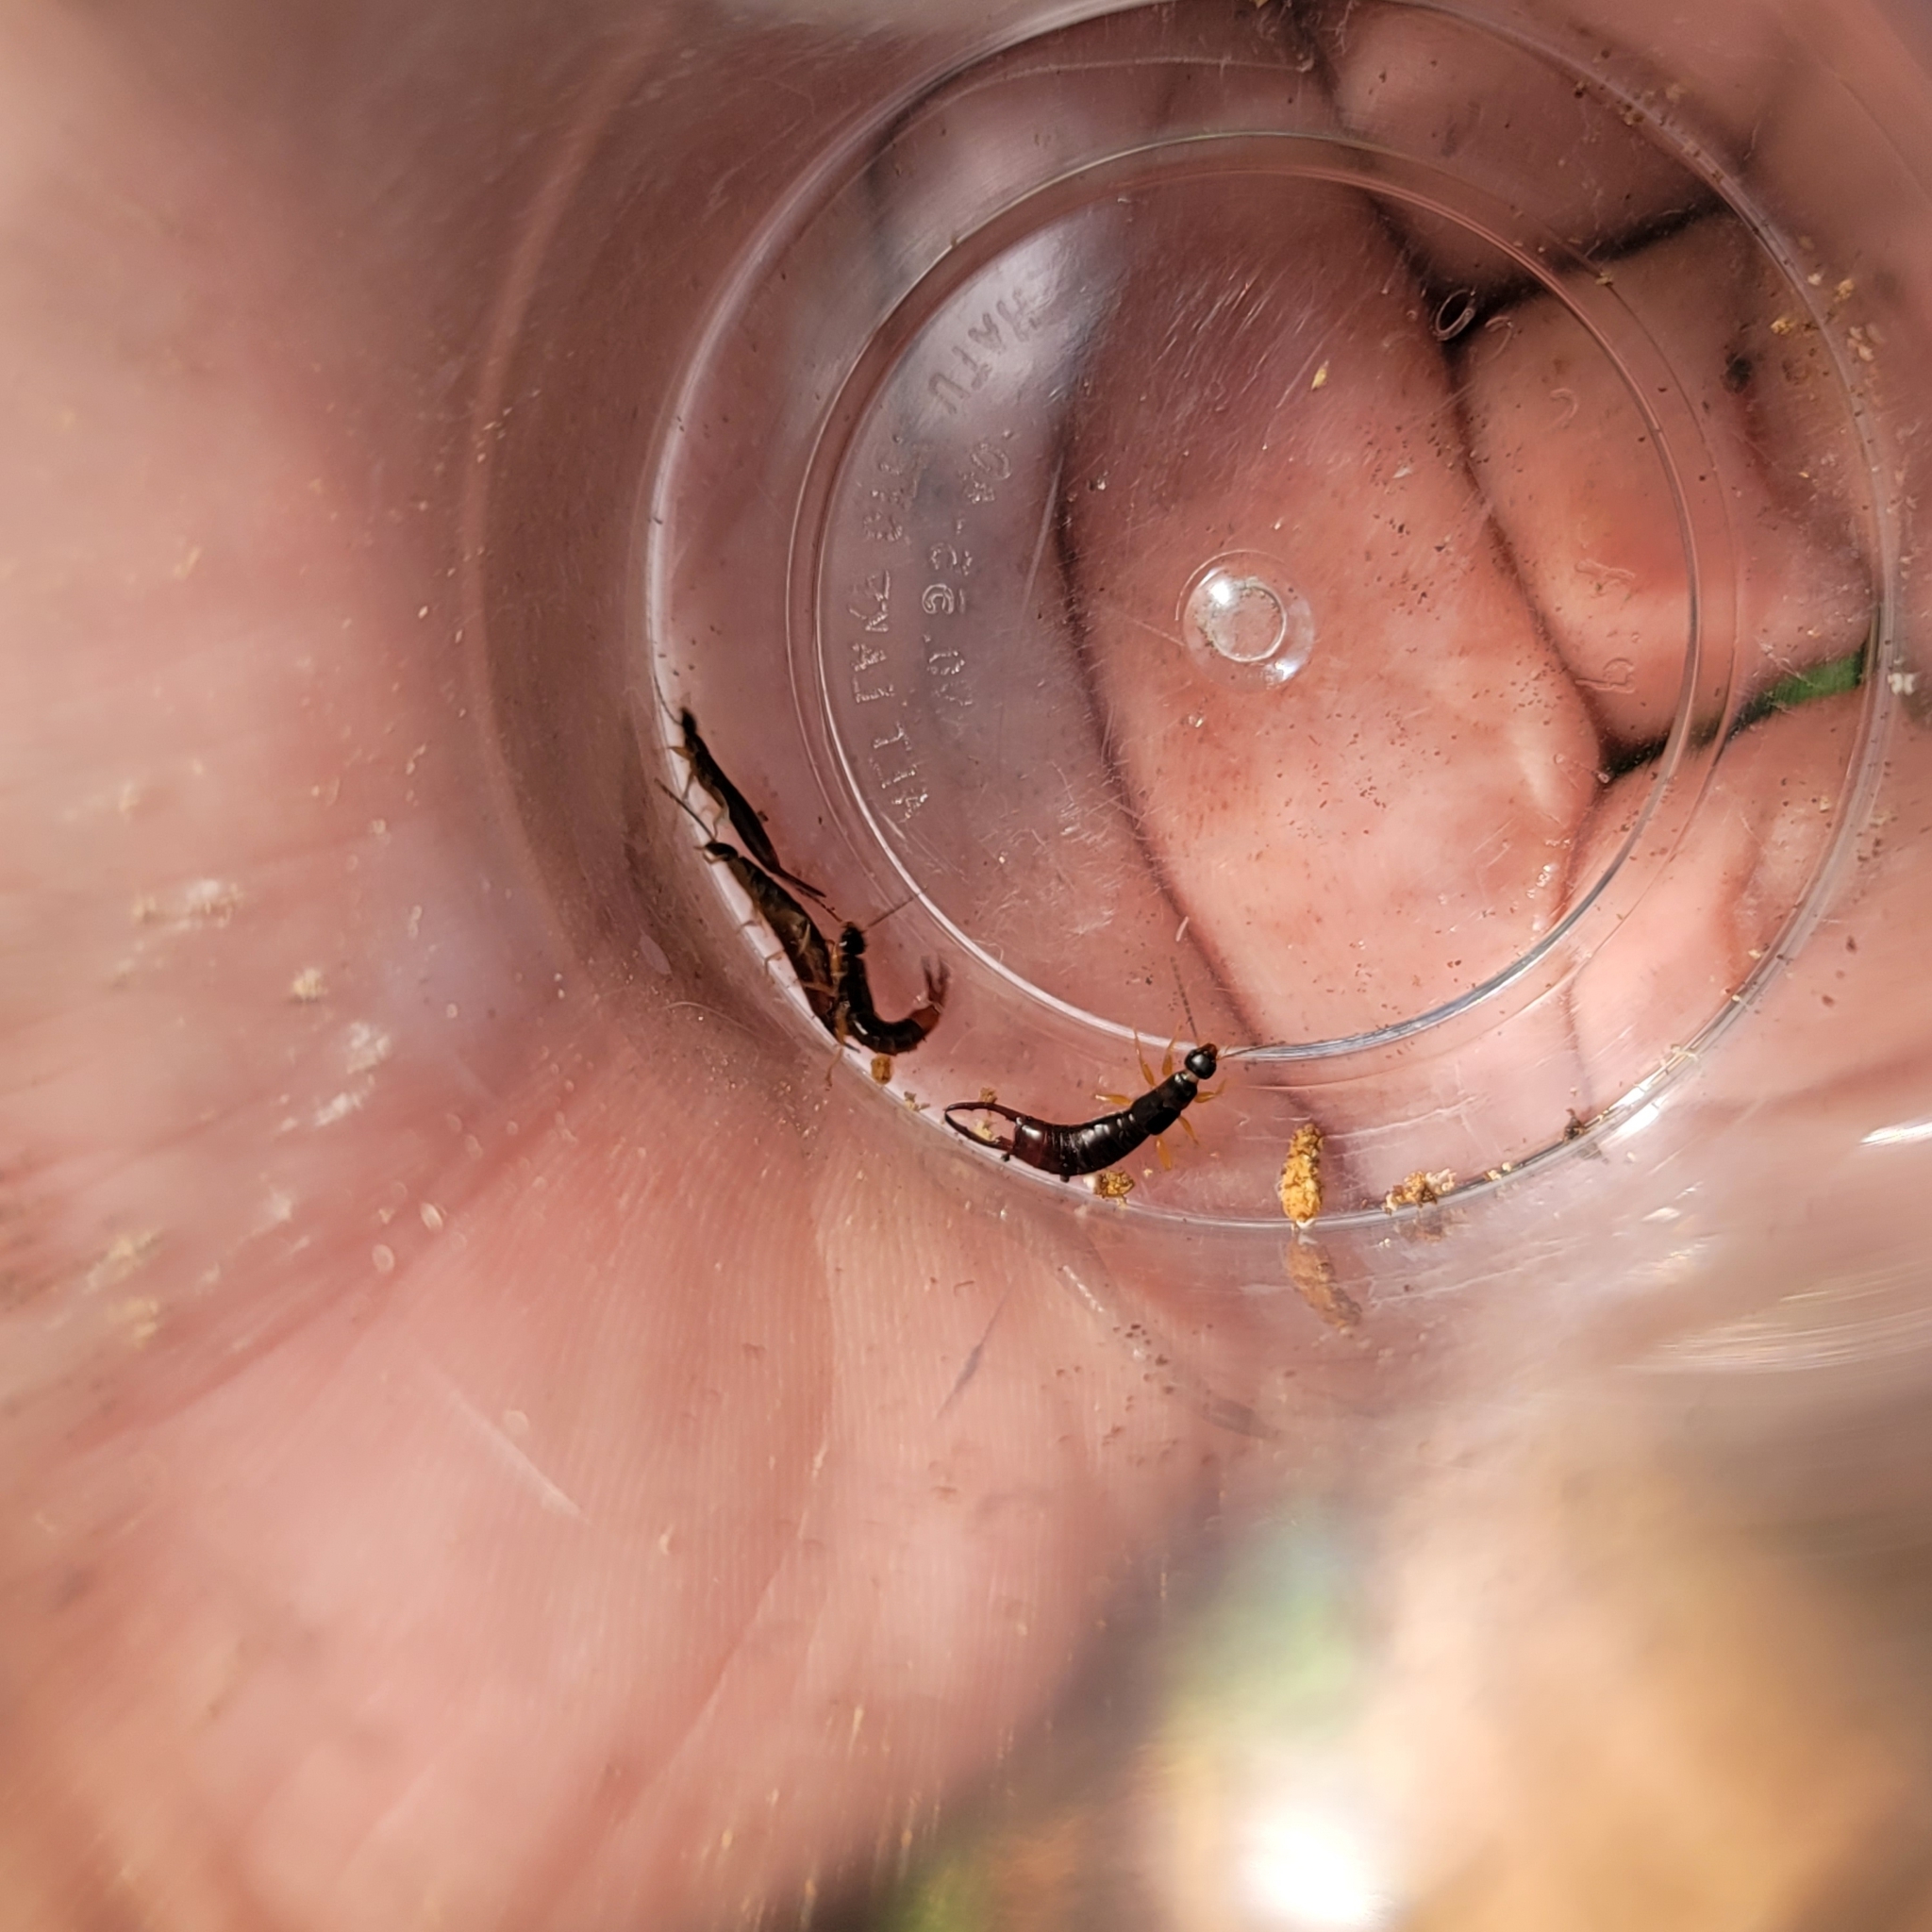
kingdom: Animalia
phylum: Arthropoda
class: Insecta
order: Dermaptera
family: Spongiphoridae
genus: Marava
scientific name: Marava pulchella
